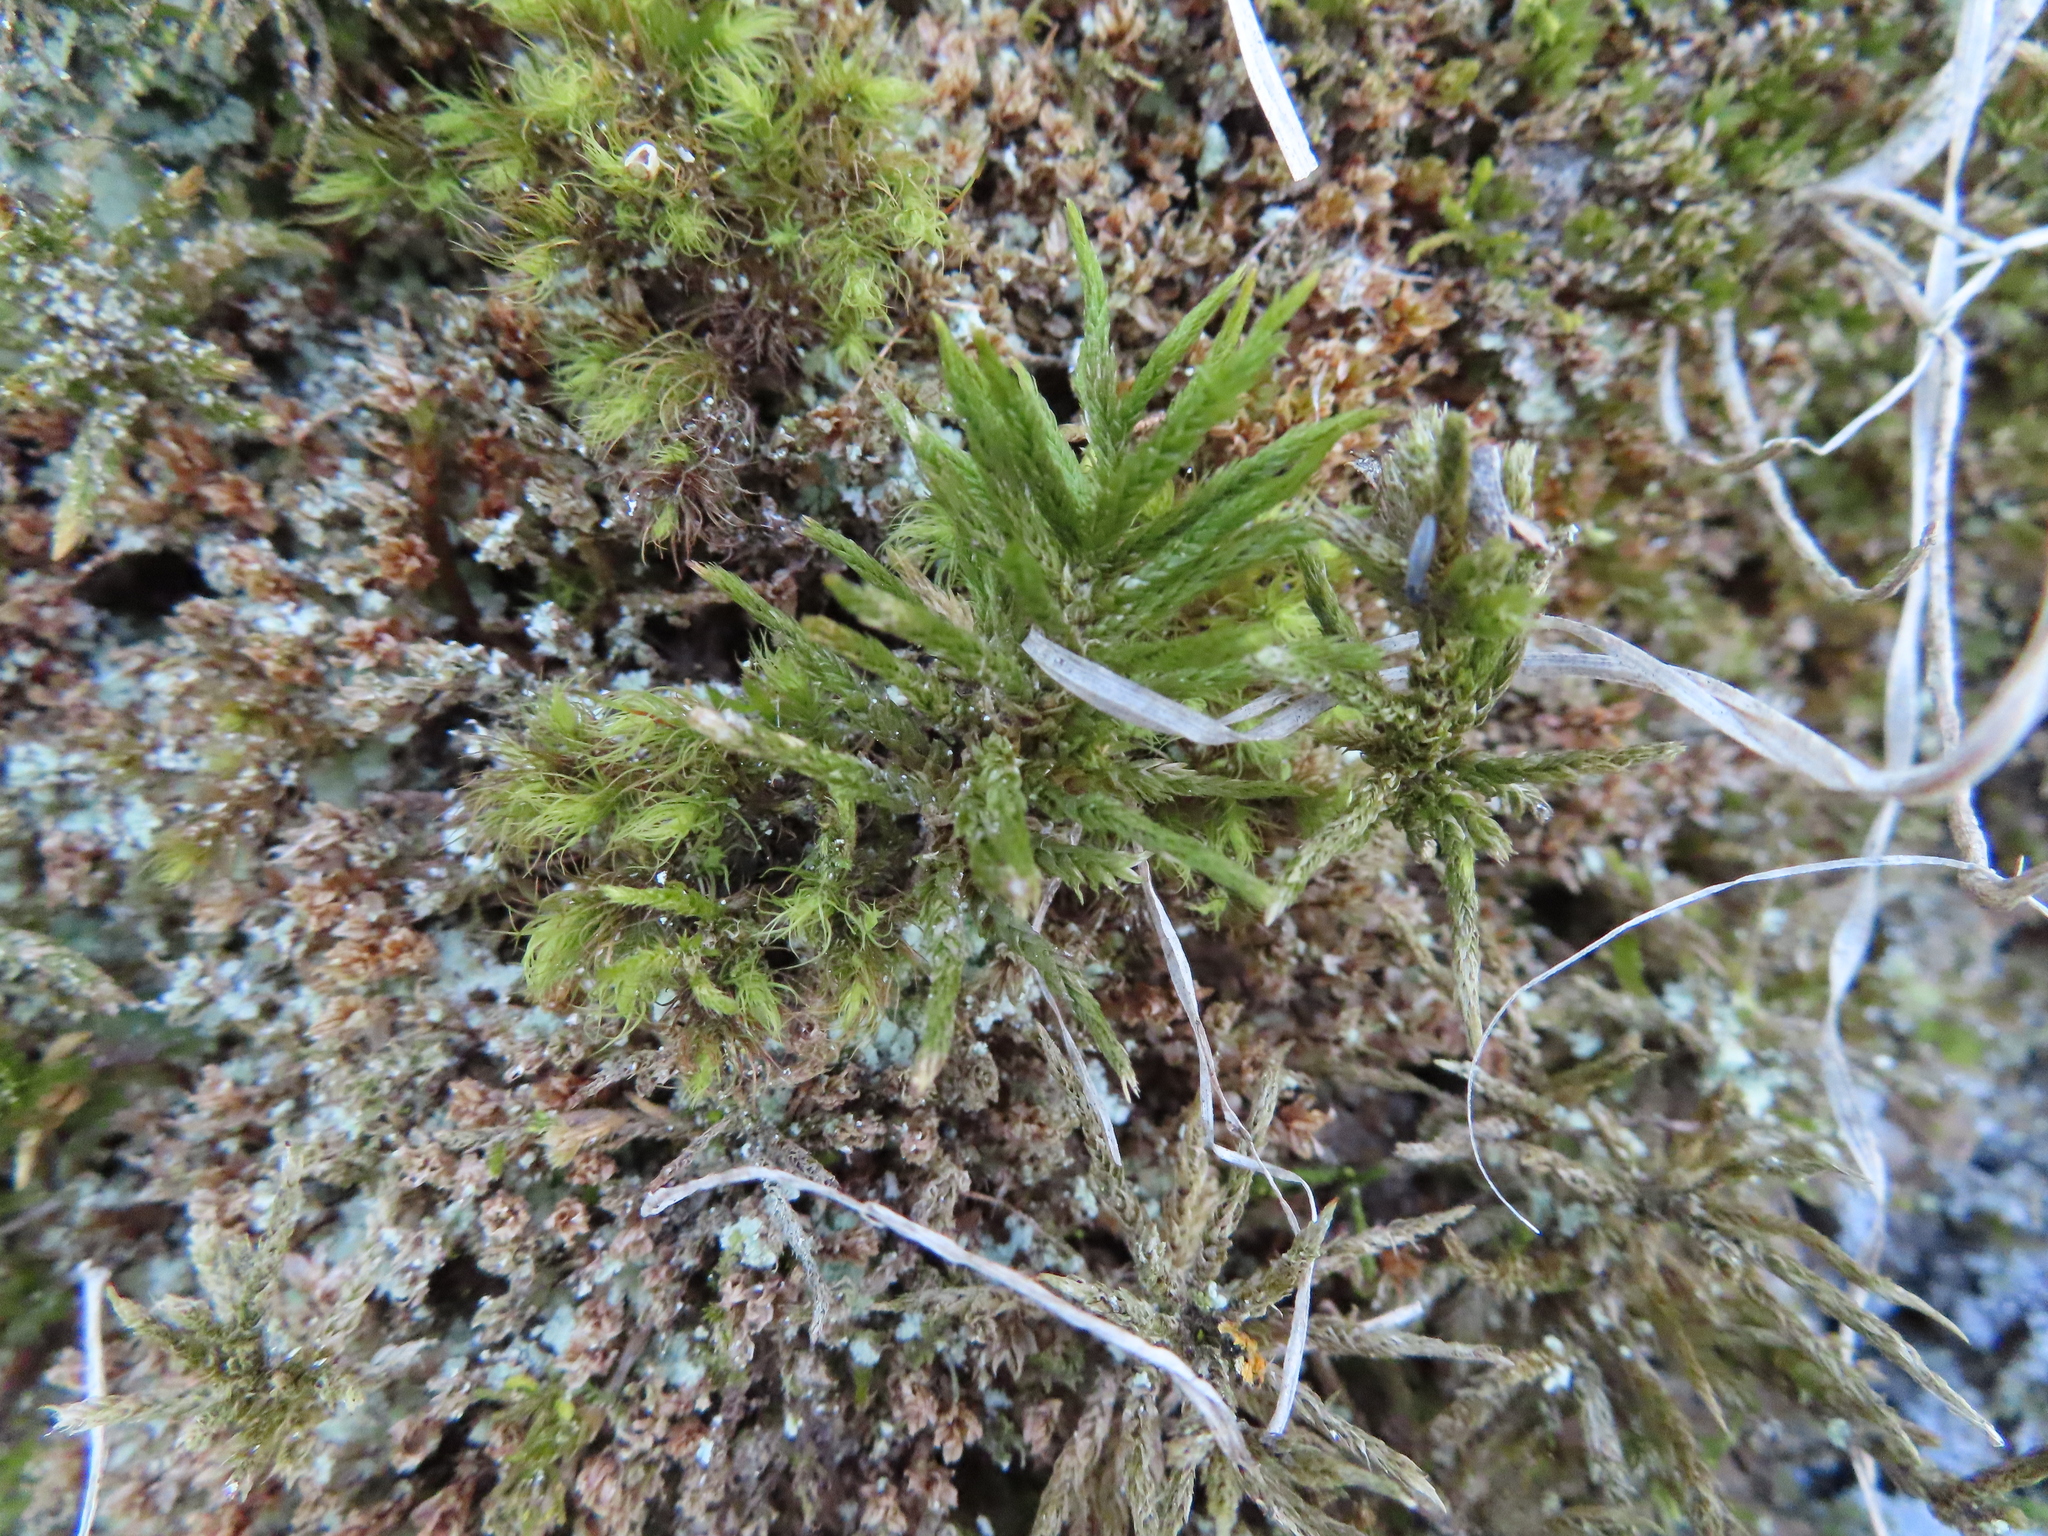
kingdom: Plantae
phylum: Bryophyta
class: Bryopsida
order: Hypnales
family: Climaciaceae
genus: Climacium
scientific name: Climacium americanum
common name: American tree moss
